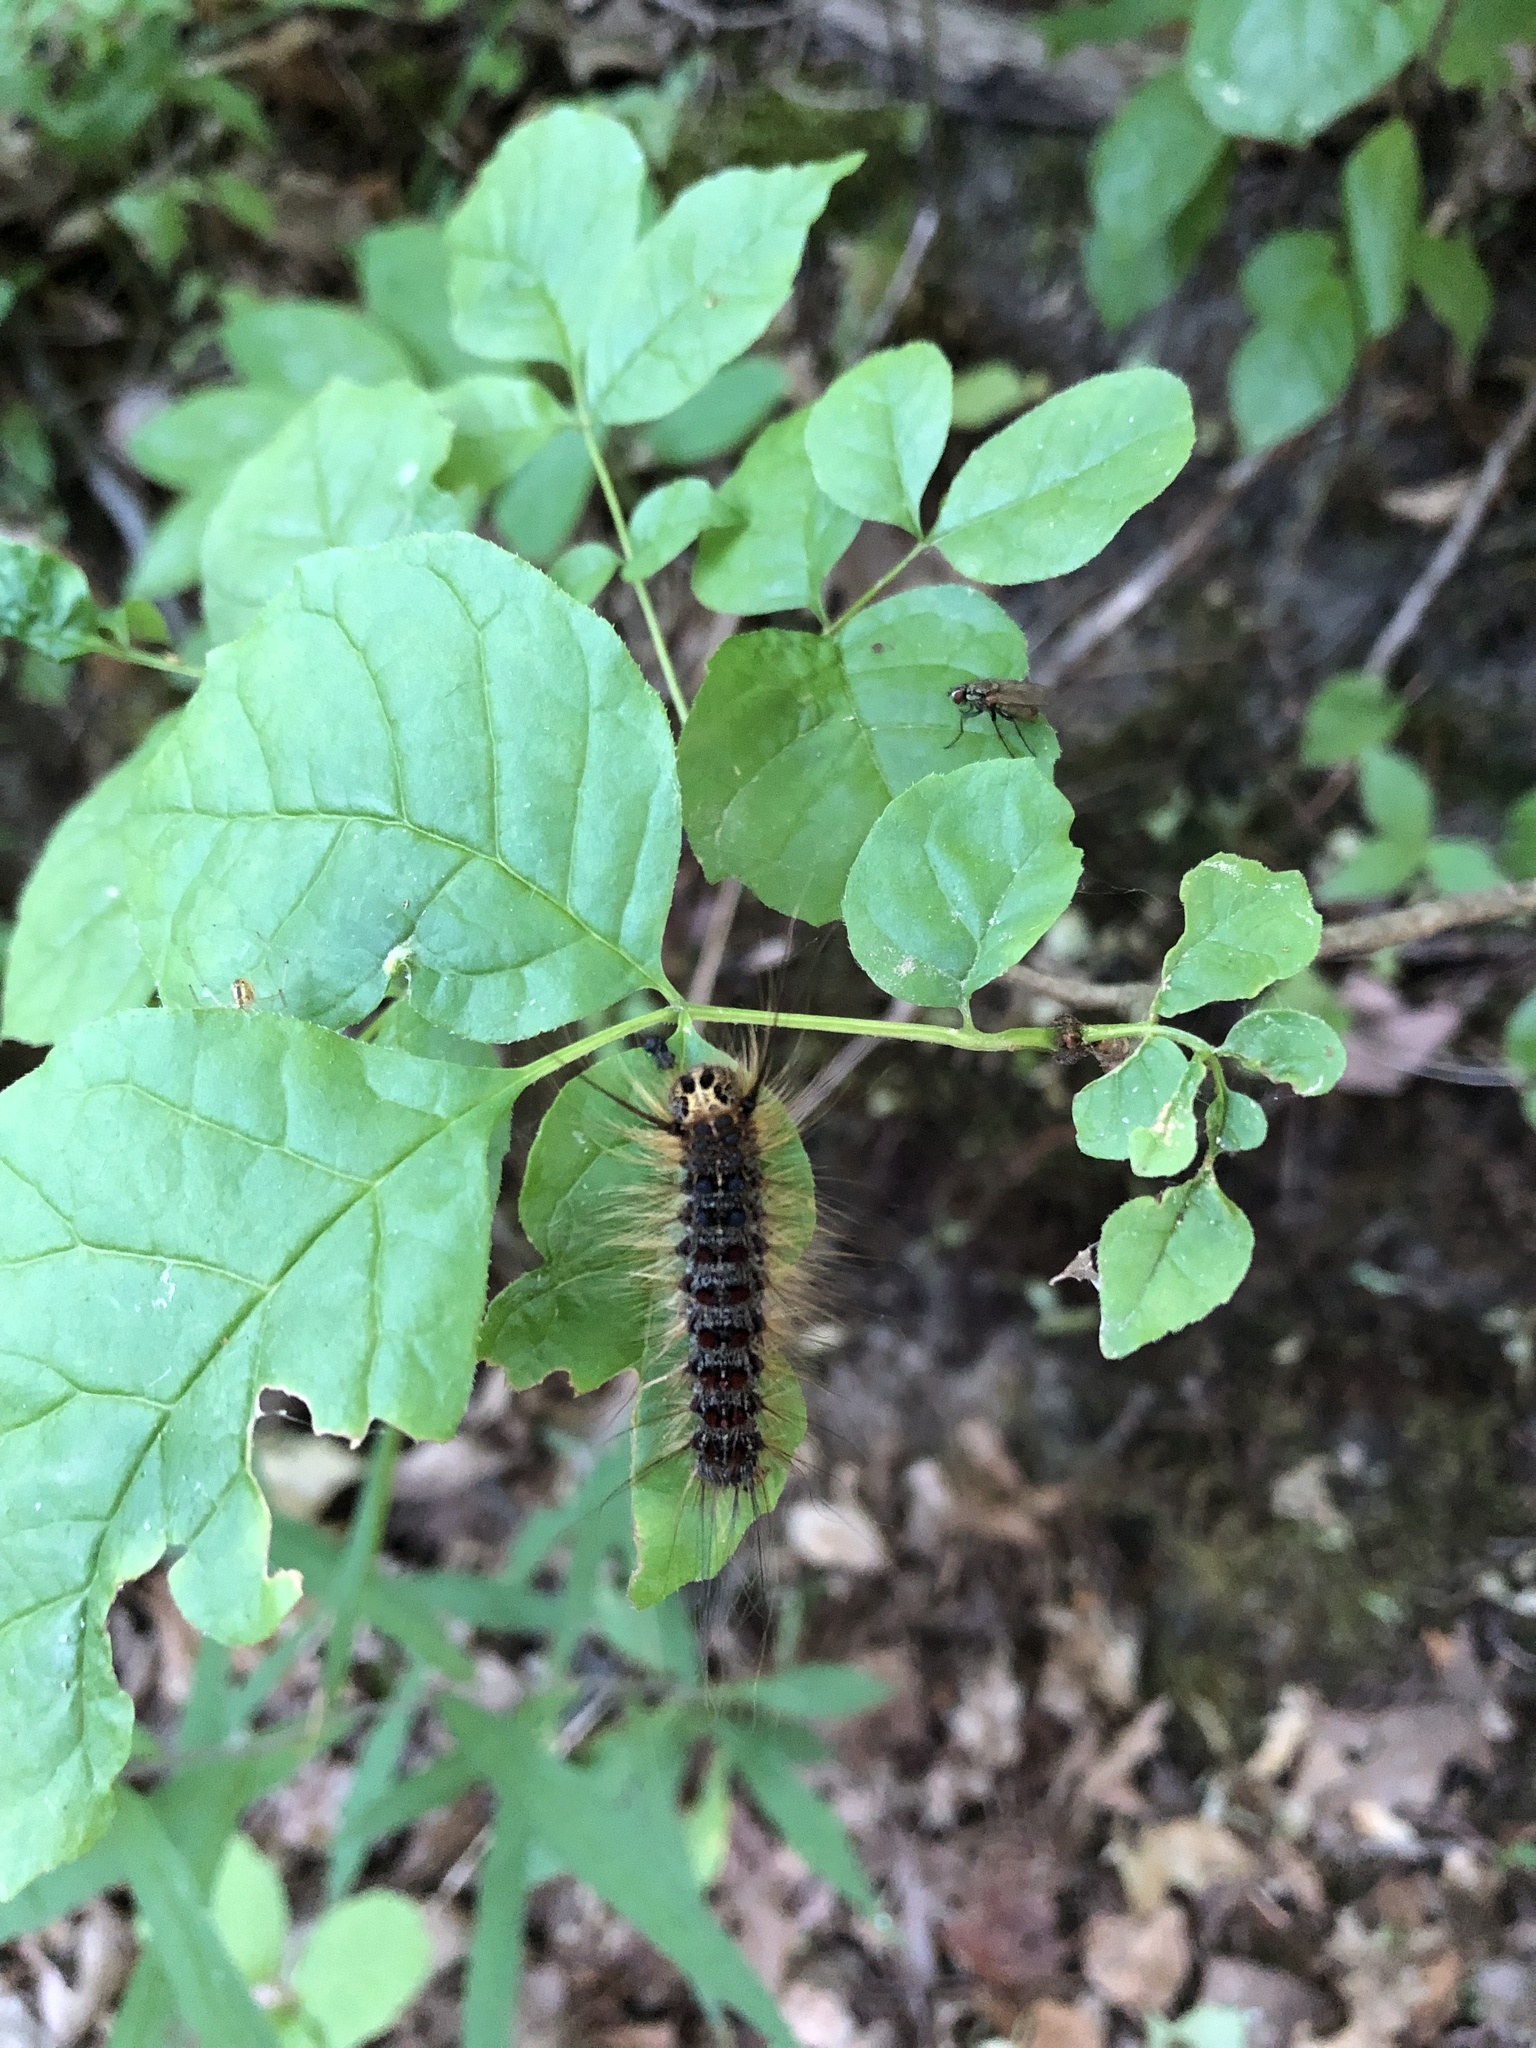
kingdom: Animalia
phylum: Arthropoda
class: Insecta
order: Lepidoptera
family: Erebidae
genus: Lymantria
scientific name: Lymantria dispar
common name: Gypsy moth
